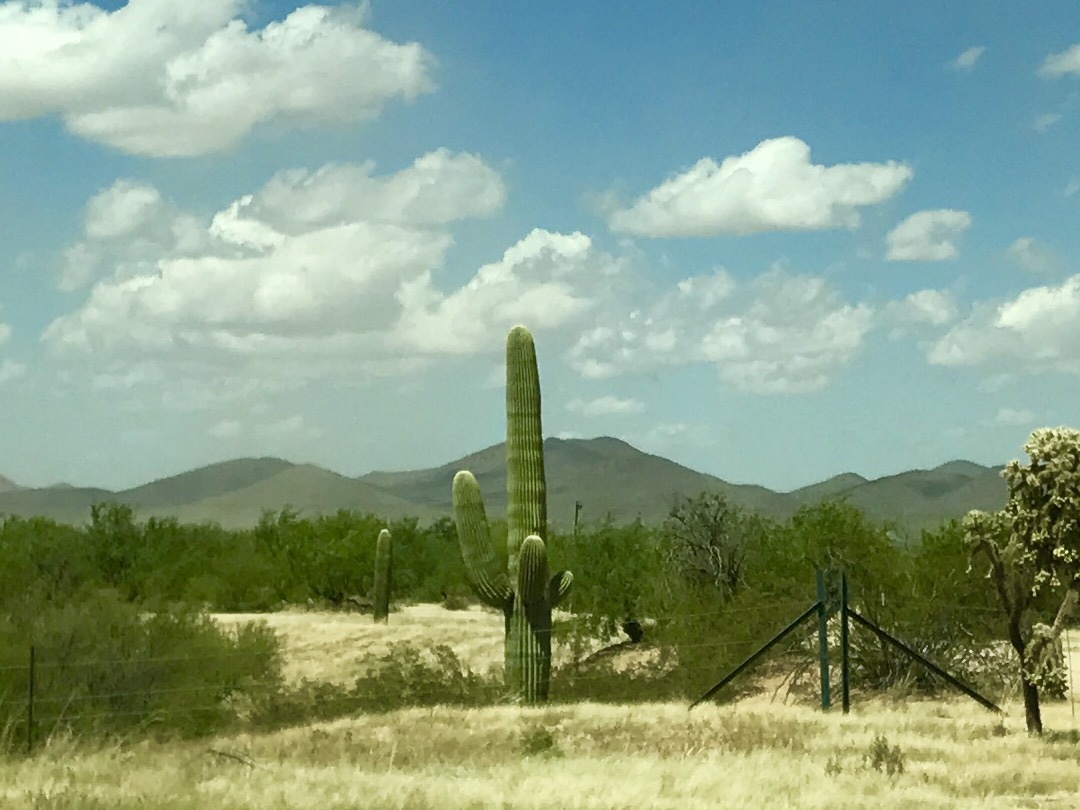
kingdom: Plantae
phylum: Tracheophyta
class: Magnoliopsida
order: Caryophyllales
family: Cactaceae
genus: Carnegiea
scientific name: Carnegiea gigantea
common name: Saguaro
